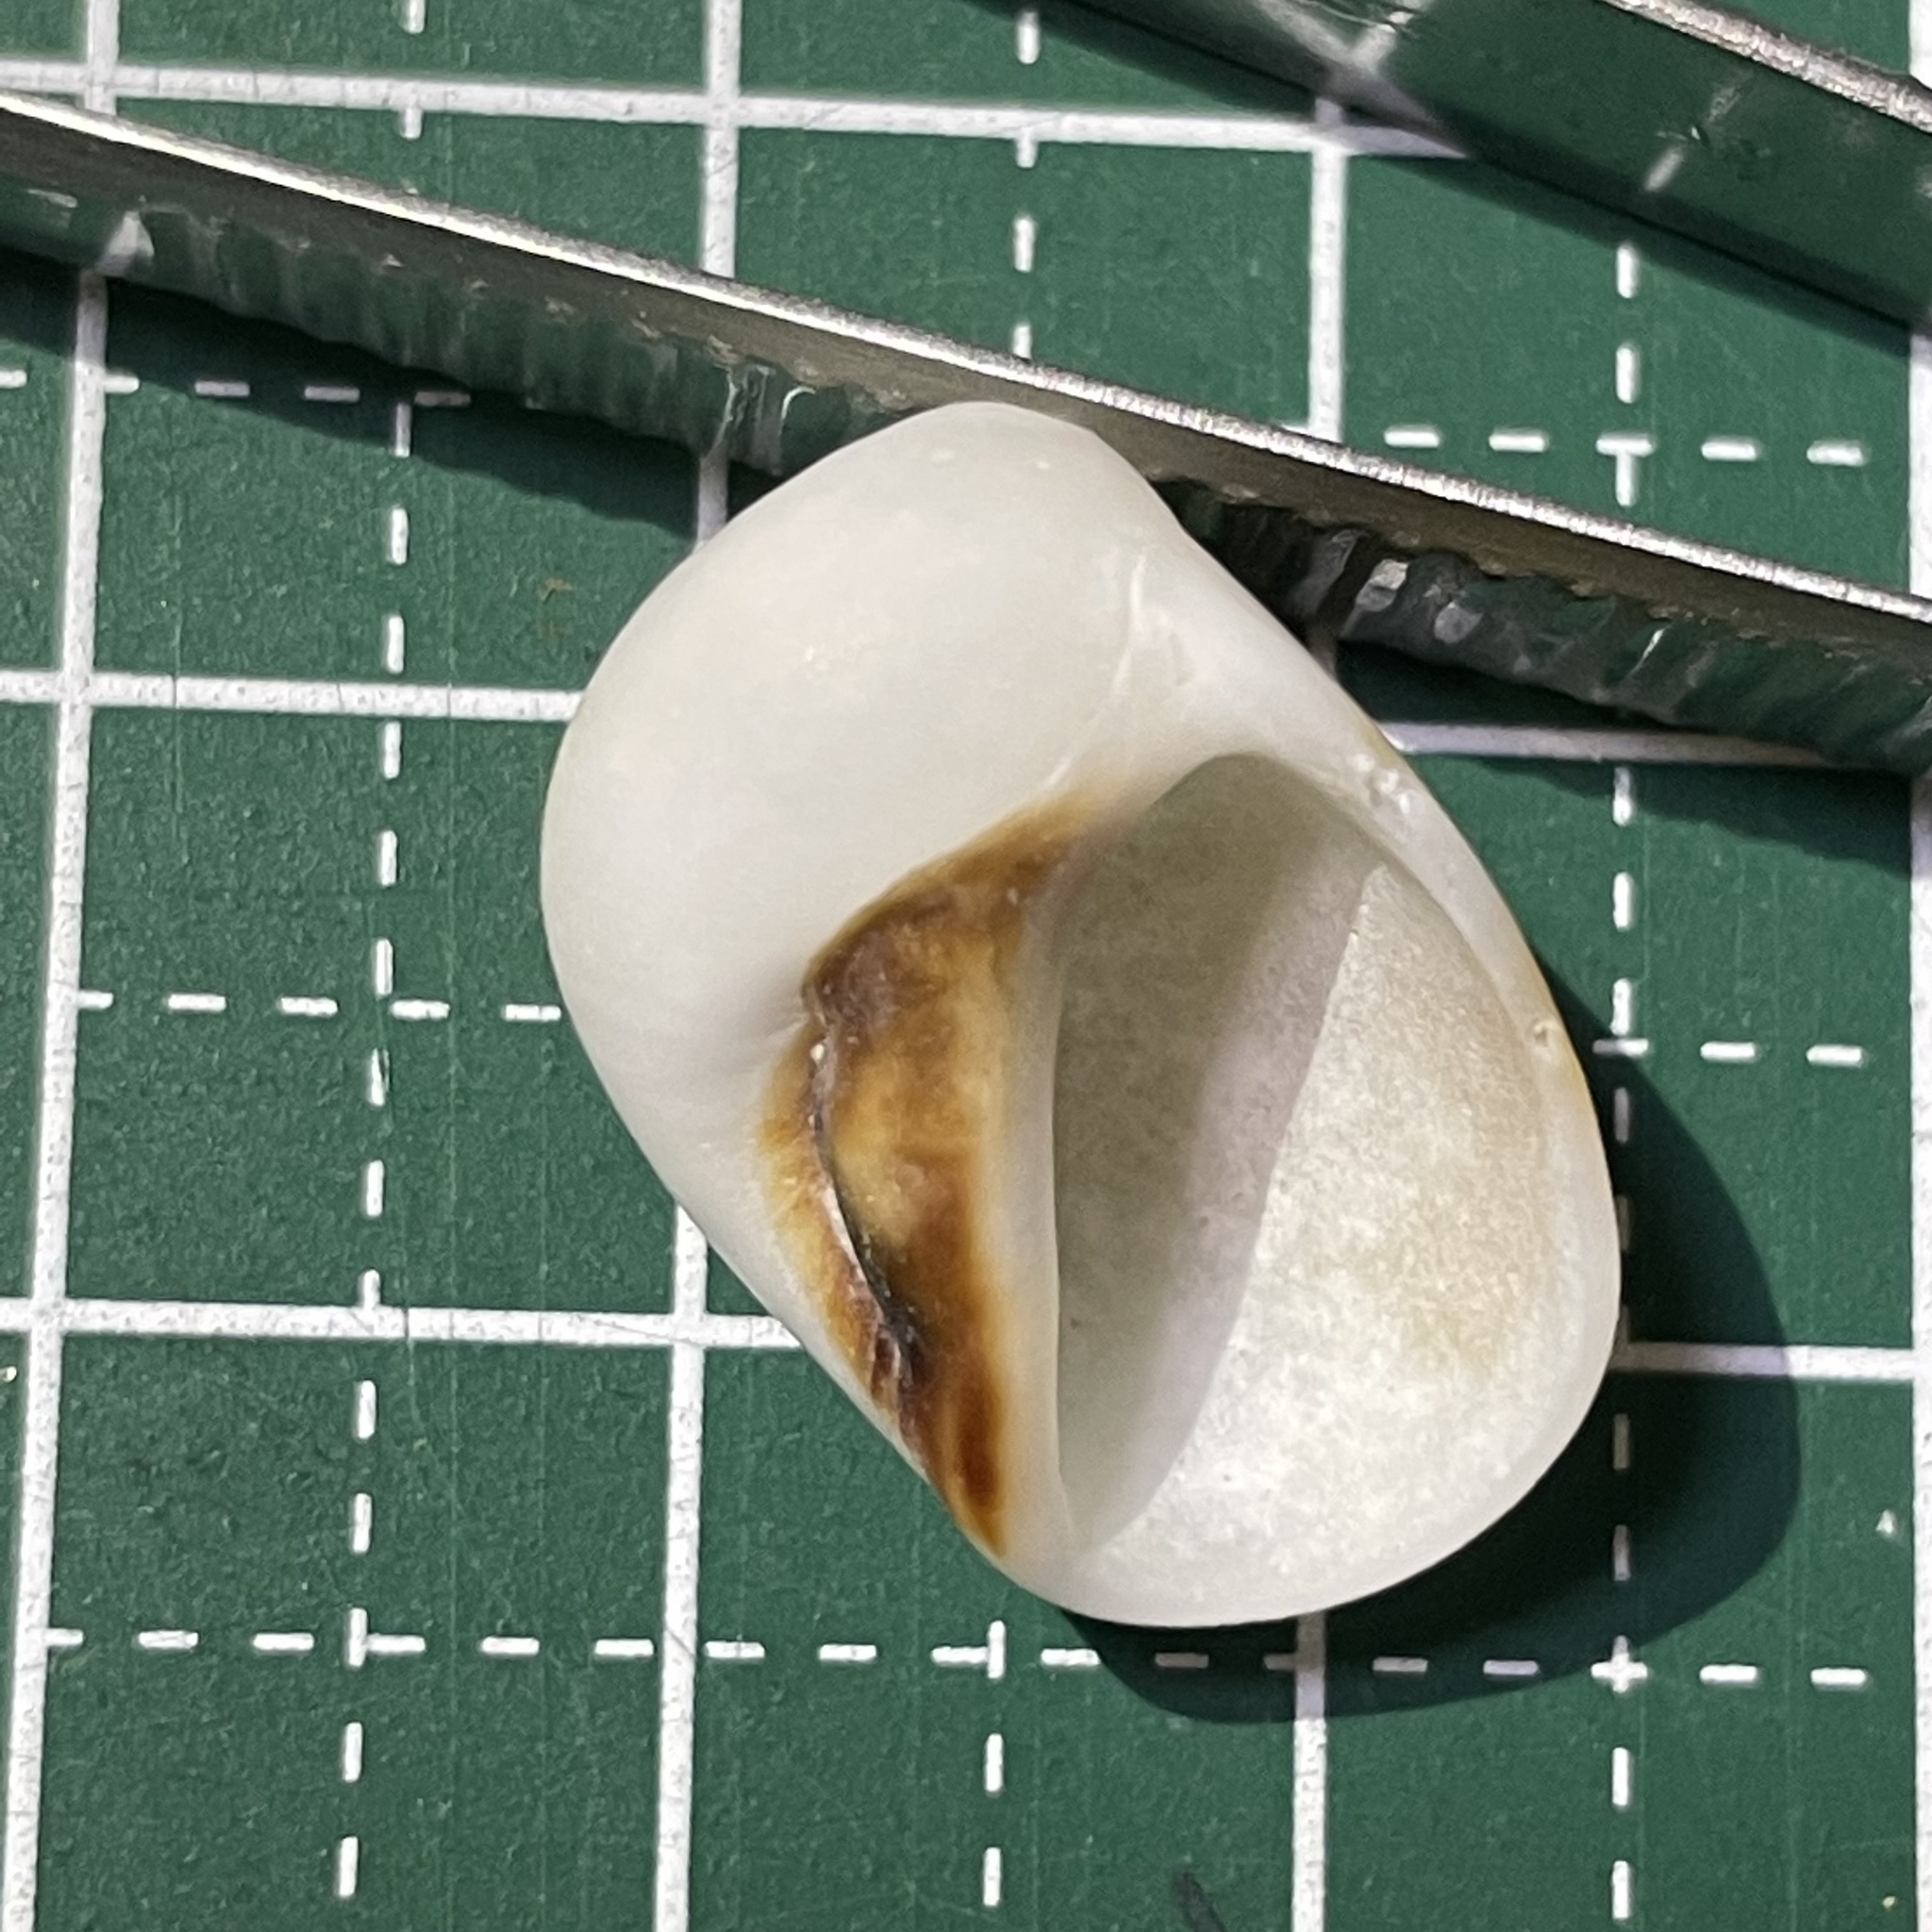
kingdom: Animalia
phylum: Mollusca
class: Gastropoda
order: Littorinimorpha
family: Naticidae
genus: Mammilla
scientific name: Mammilla melanostoma
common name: Black-mouth moonsnail
